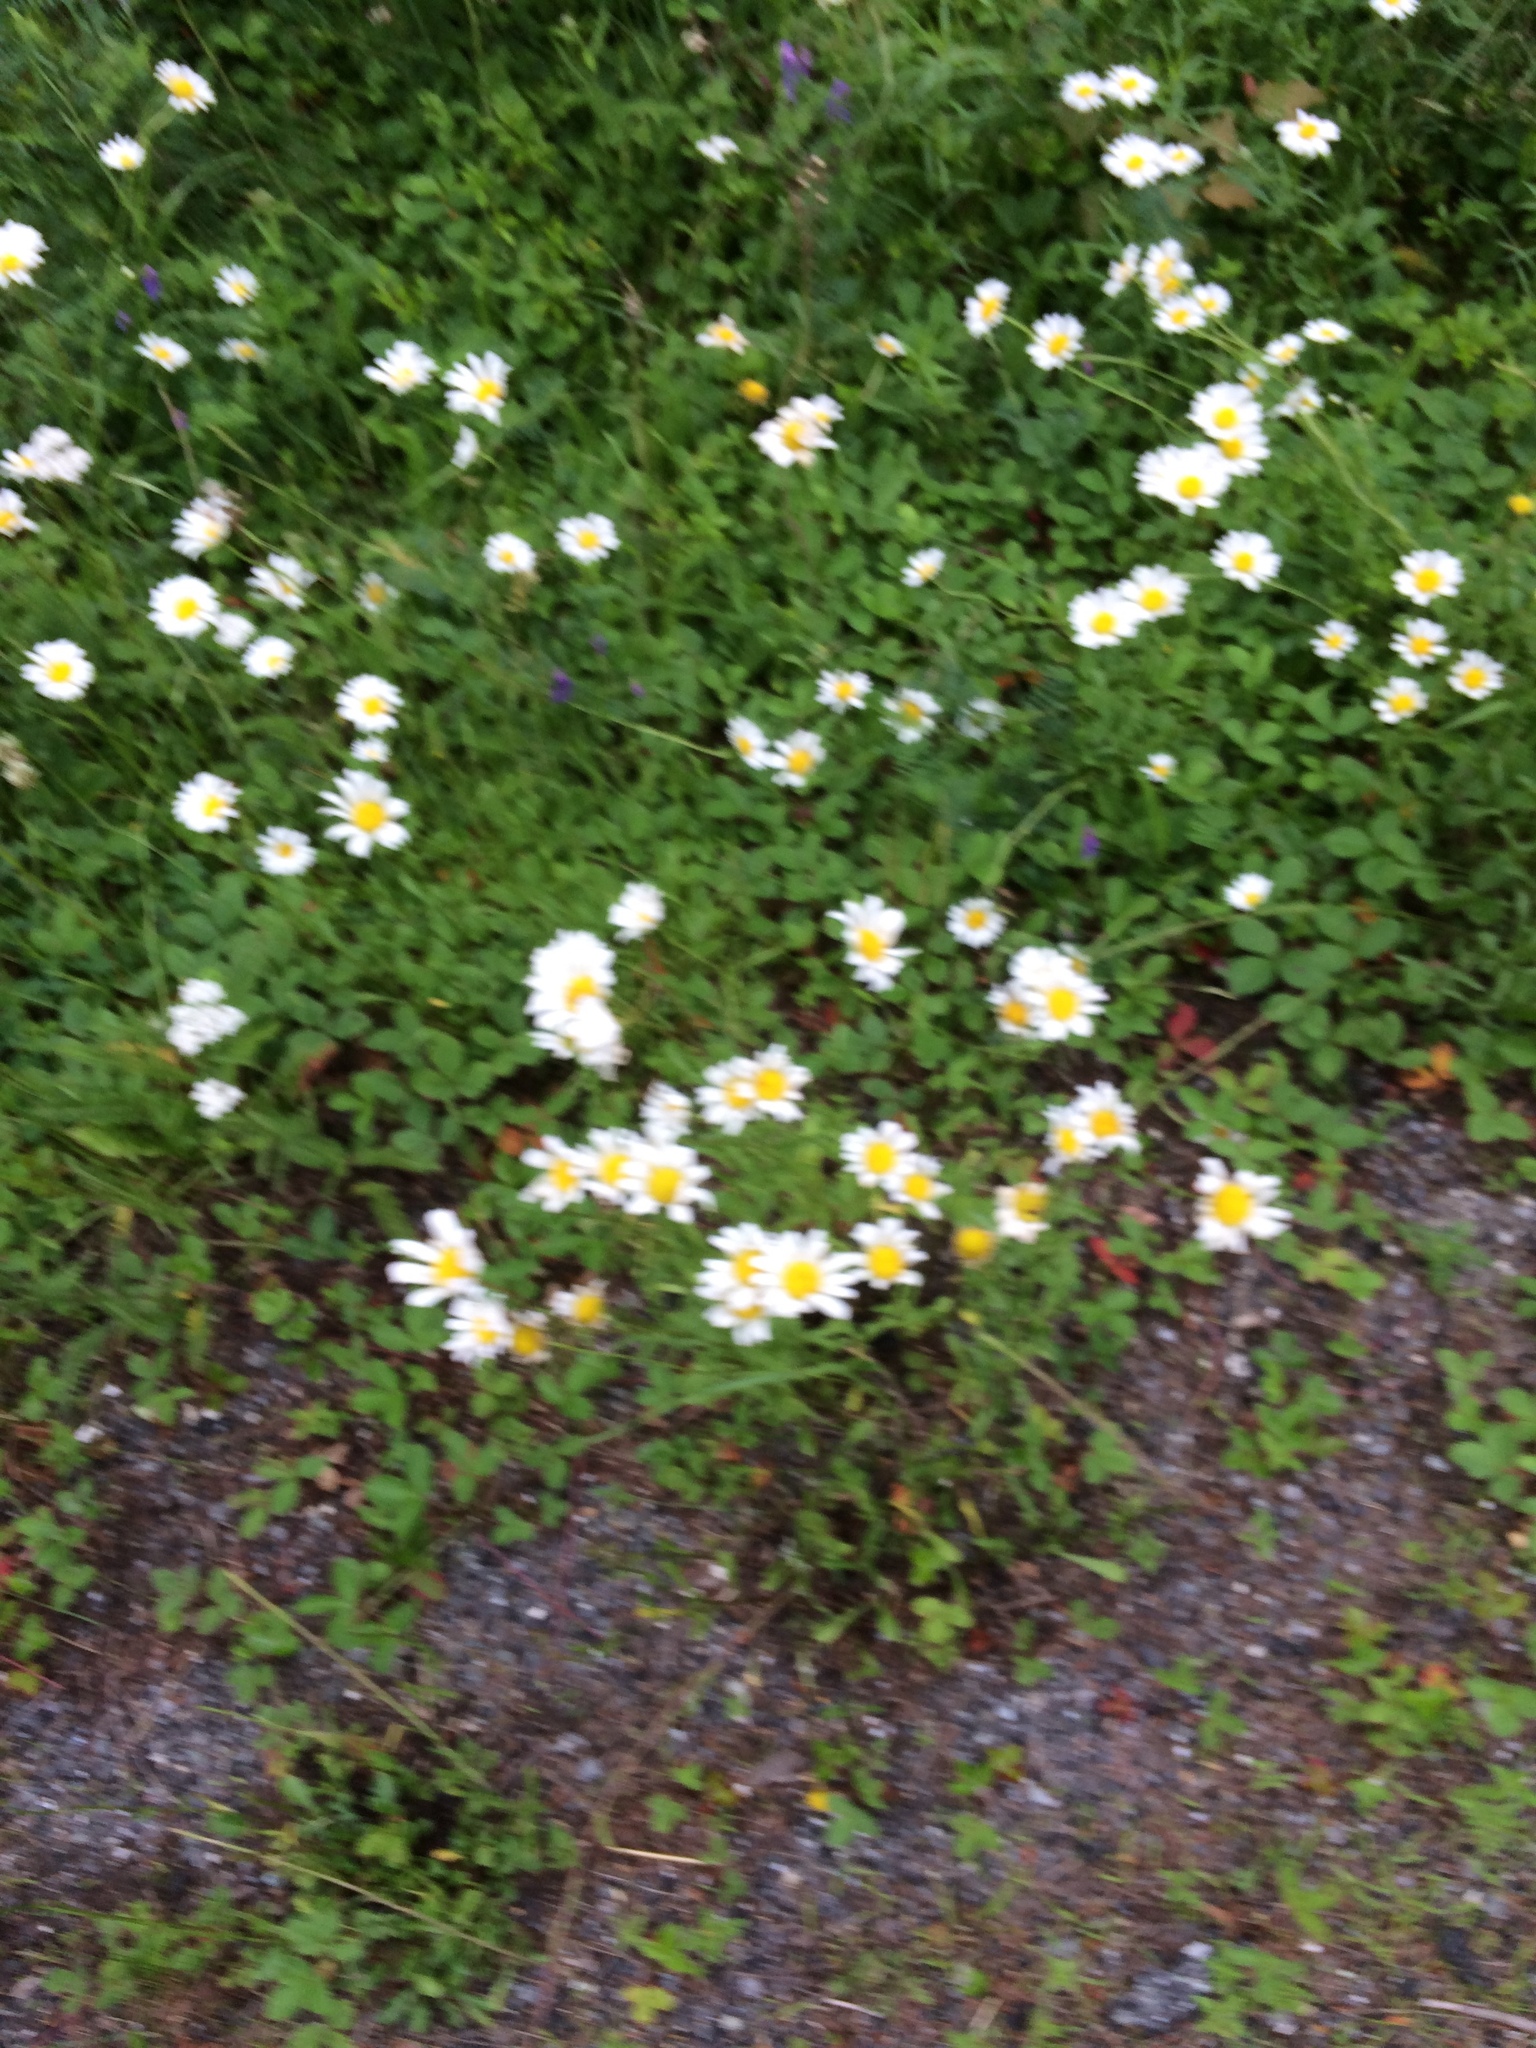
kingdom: Plantae
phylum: Tracheophyta
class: Magnoliopsida
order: Asterales
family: Asteraceae
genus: Leucanthemum
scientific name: Leucanthemum vulgare
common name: Oxeye daisy
